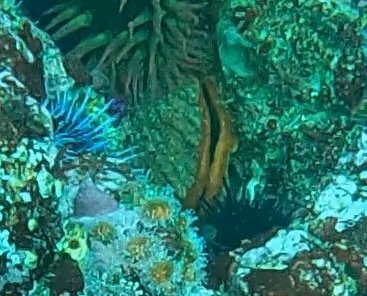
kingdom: Animalia
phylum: Mollusca
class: Bivalvia
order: Pectinida
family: Pectinidae
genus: Crassadoma
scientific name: Crassadoma gigantea
